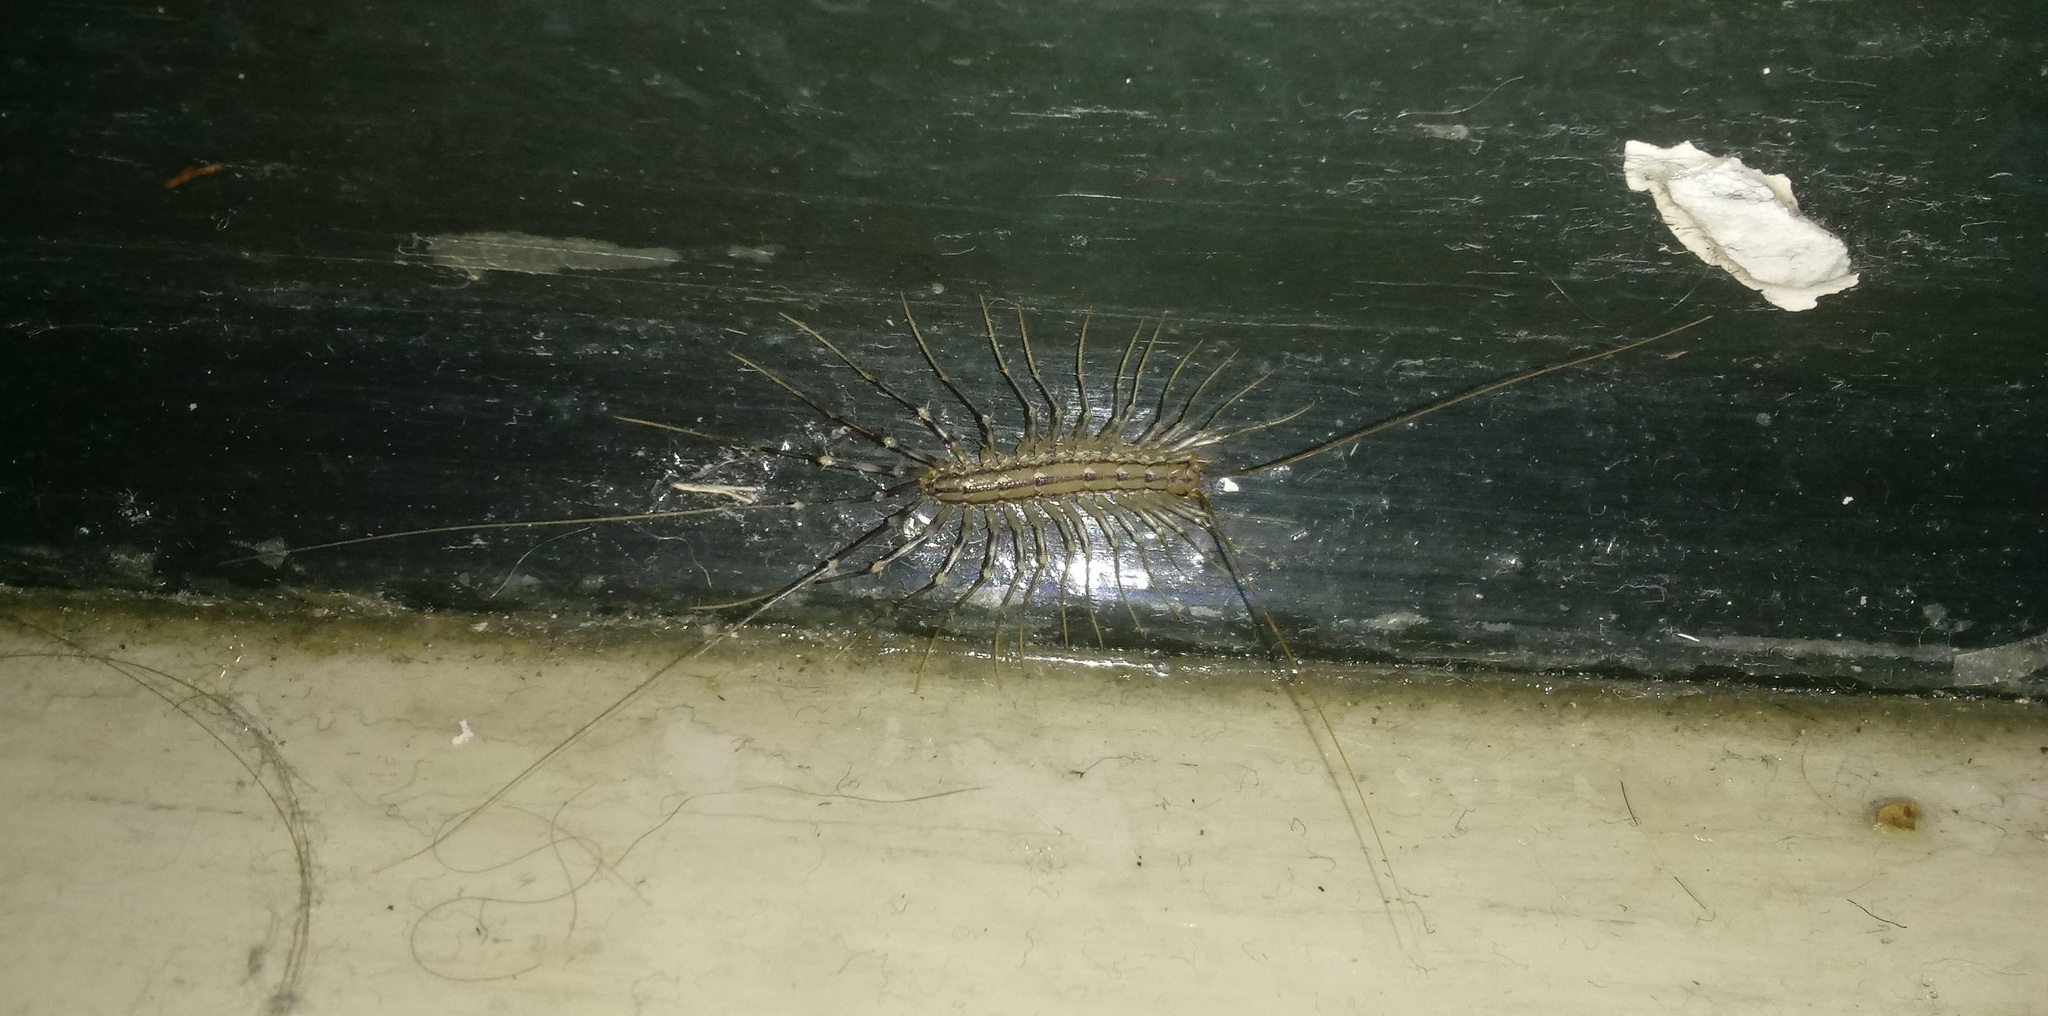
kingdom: Animalia
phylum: Arthropoda
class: Chilopoda
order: Scutigeromorpha
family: Scutigeridae
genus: Scutigera
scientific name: Scutigera coleoptrata
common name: House centipede
